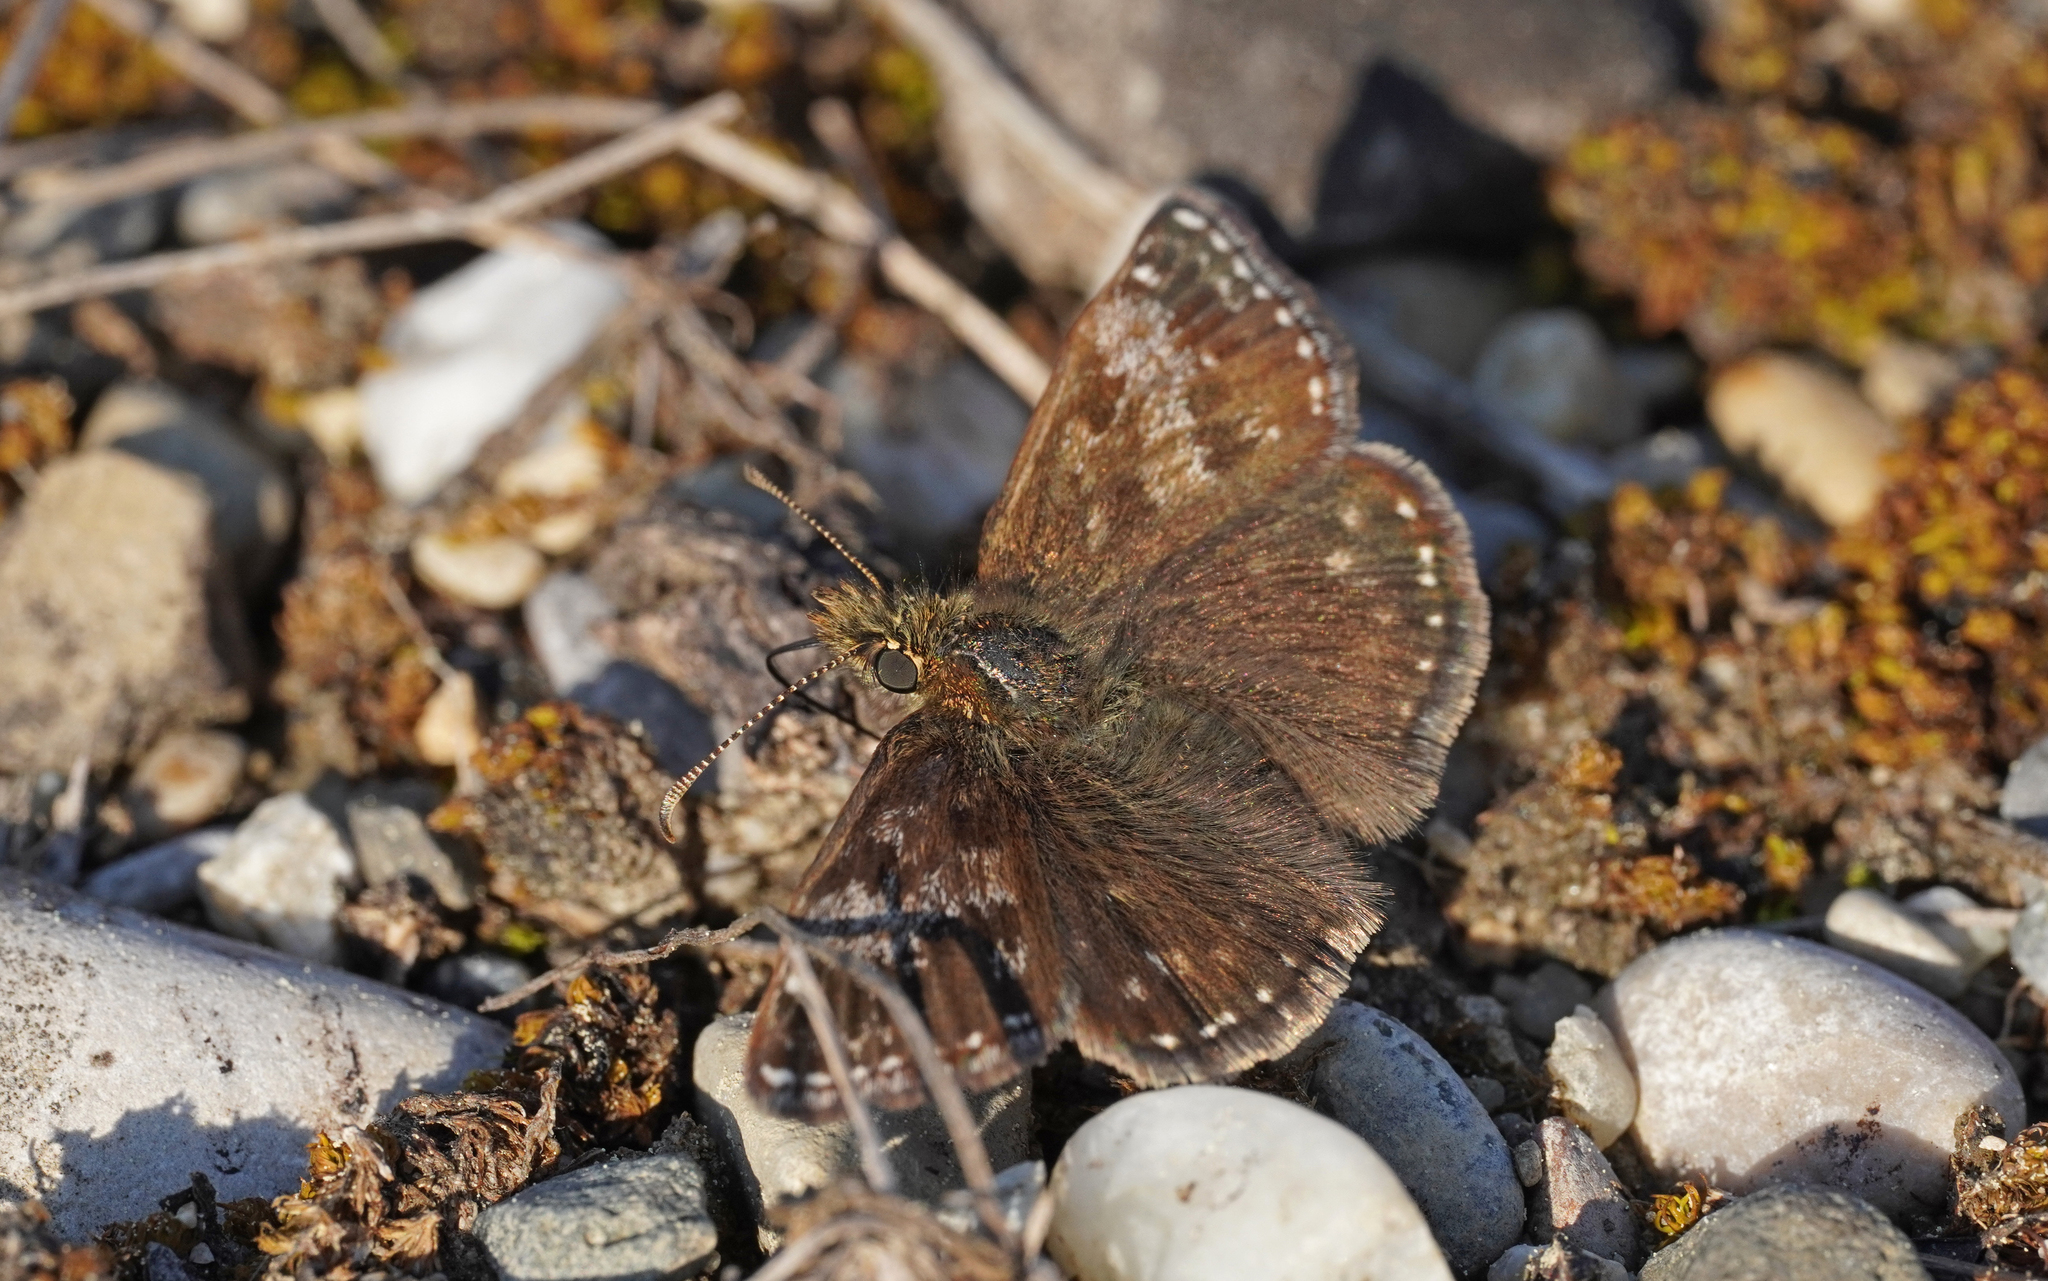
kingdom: Animalia
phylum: Arthropoda
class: Insecta
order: Lepidoptera
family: Hesperiidae
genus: Erynnis
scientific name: Erynnis tages
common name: Dingy skipper
